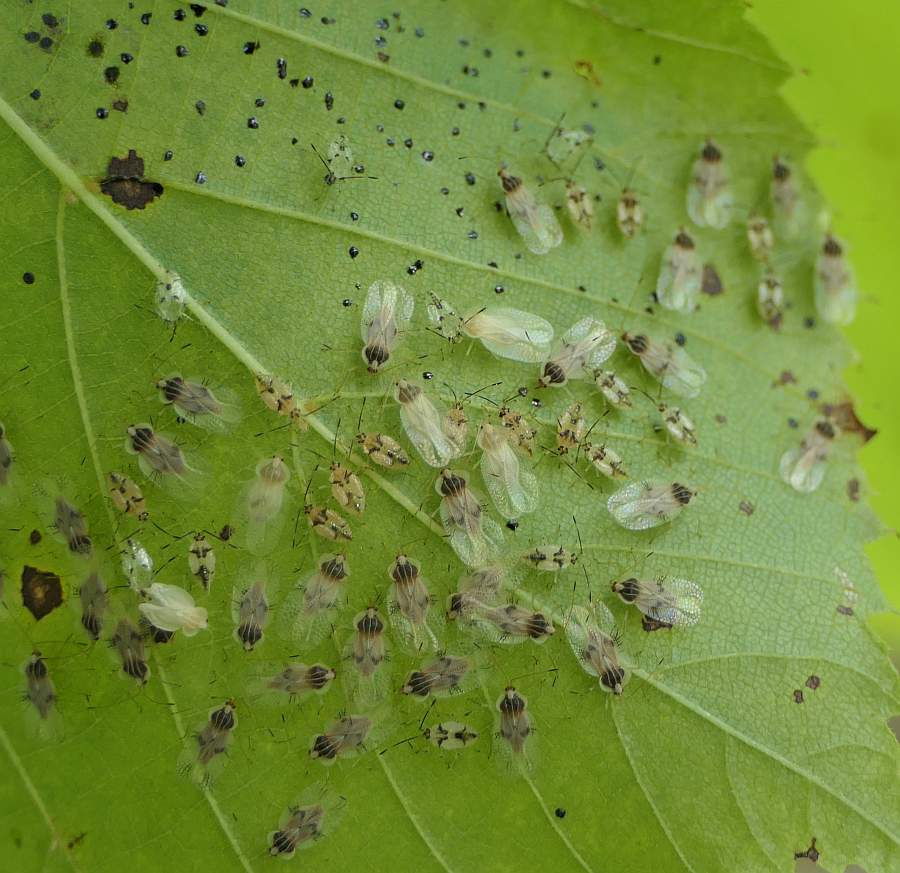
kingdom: Animalia
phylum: Arthropoda
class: Insecta
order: Hemiptera
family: Tingidae
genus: Gargaphia
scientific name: Gargaphia tiliae
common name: Basswood lace bug
